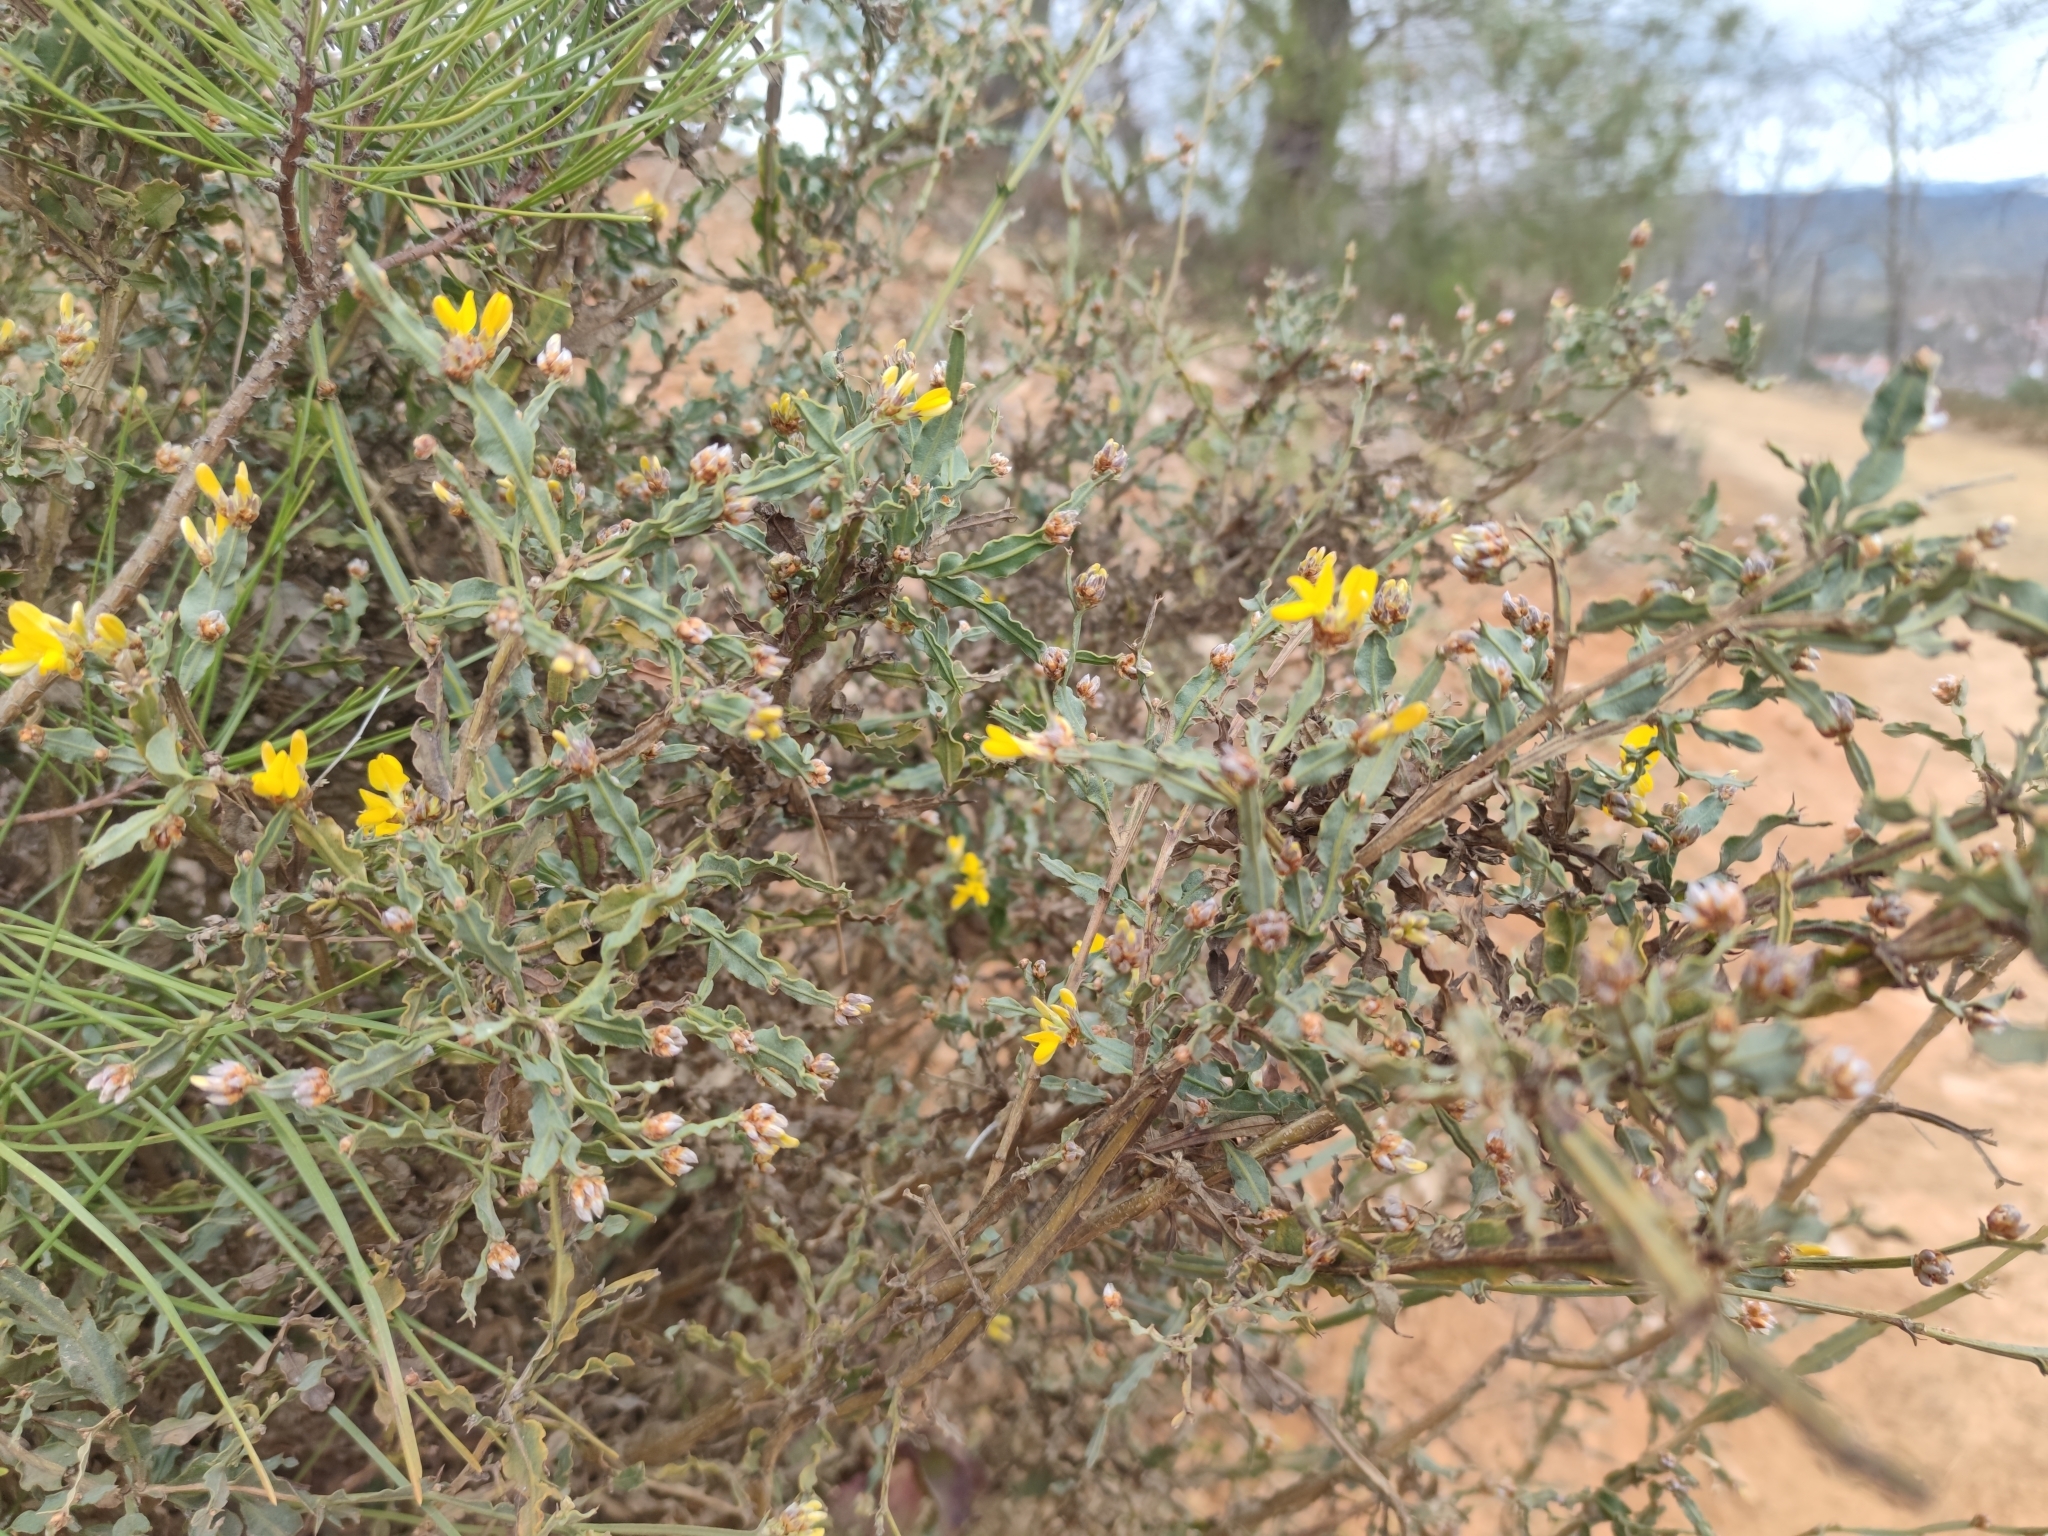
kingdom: Plantae
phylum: Tracheophyta
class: Magnoliopsida
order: Fabales
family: Fabaceae
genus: Genista
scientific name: Genista tridentata
